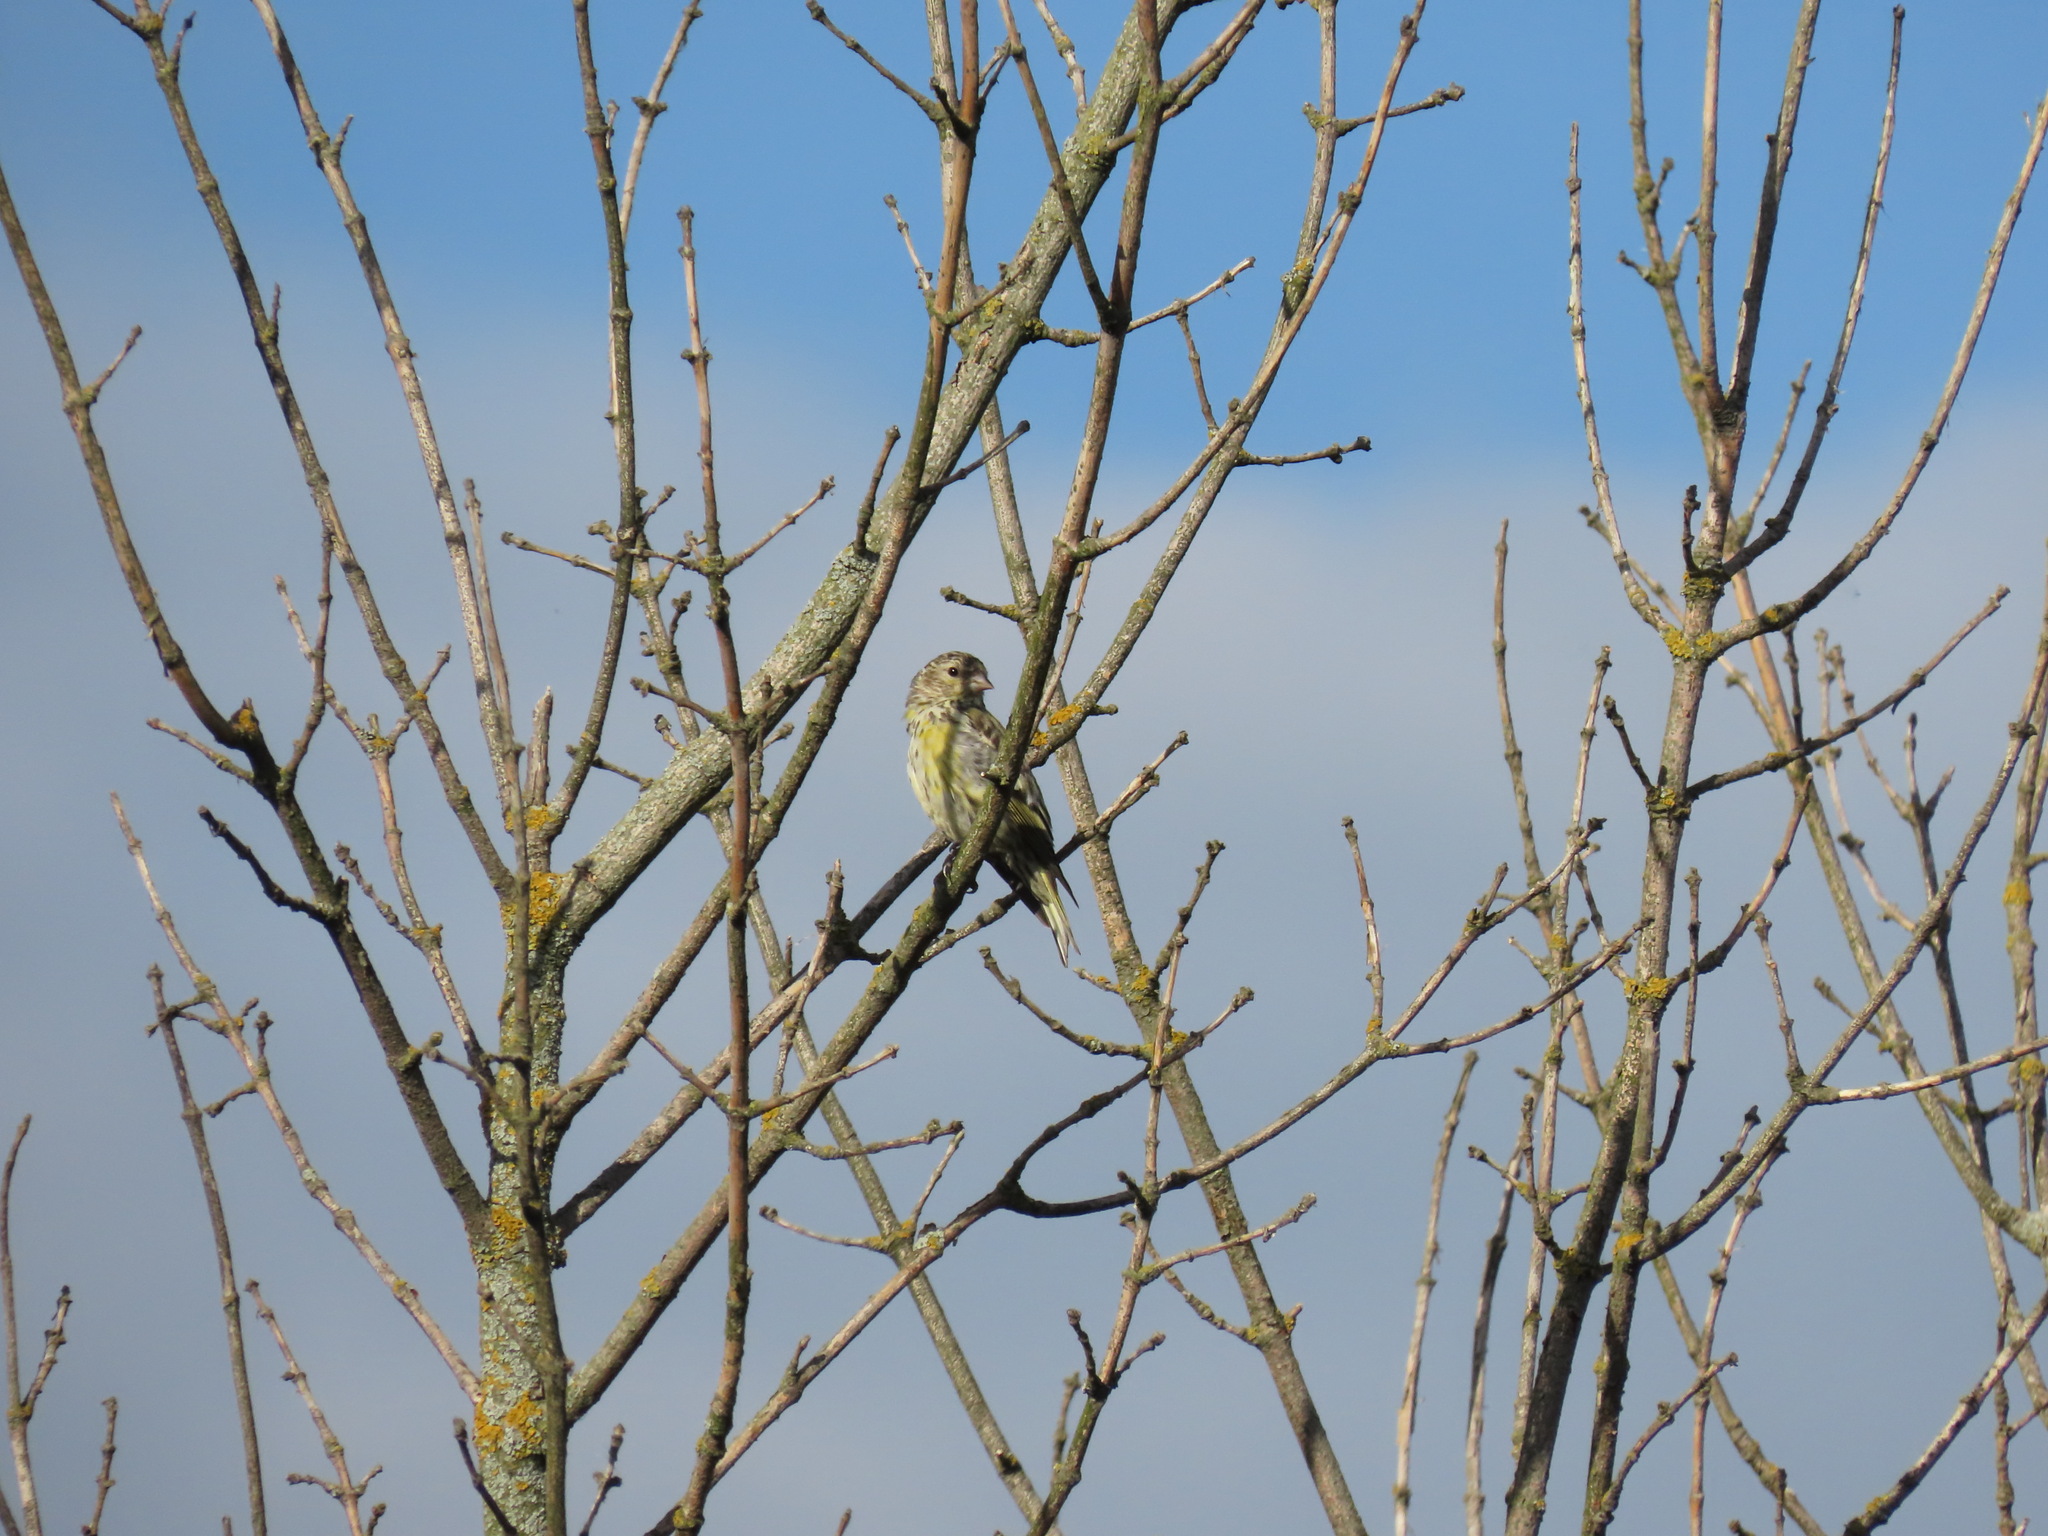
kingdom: Animalia
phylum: Chordata
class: Aves
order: Passeriformes
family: Fringillidae
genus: Spinus
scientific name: Spinus spinus
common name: Eurasian siskin
